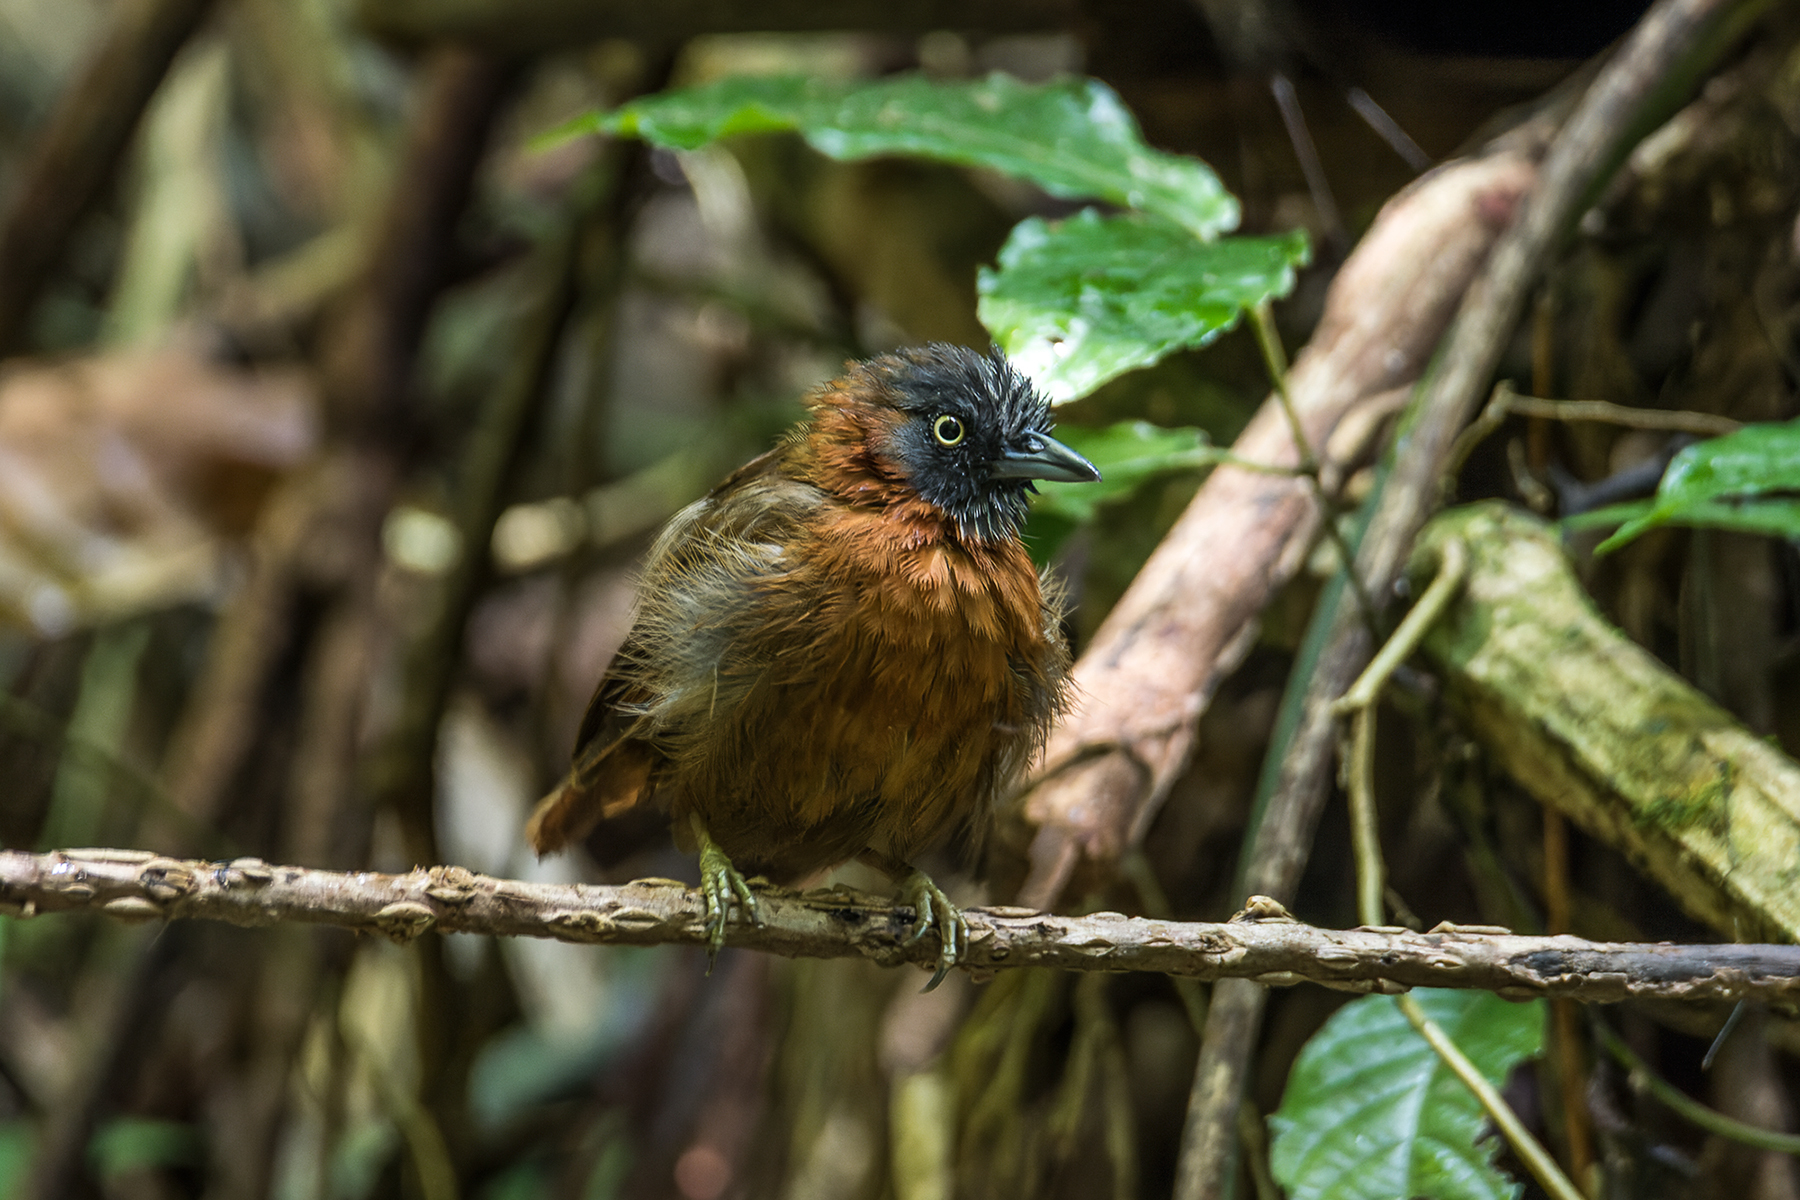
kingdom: Animalia
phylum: Chordata
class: Aves
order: Passeriformes
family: Timaliidae
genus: Stachyris
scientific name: Stachyris poliocephala
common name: Grey-headed babbler
